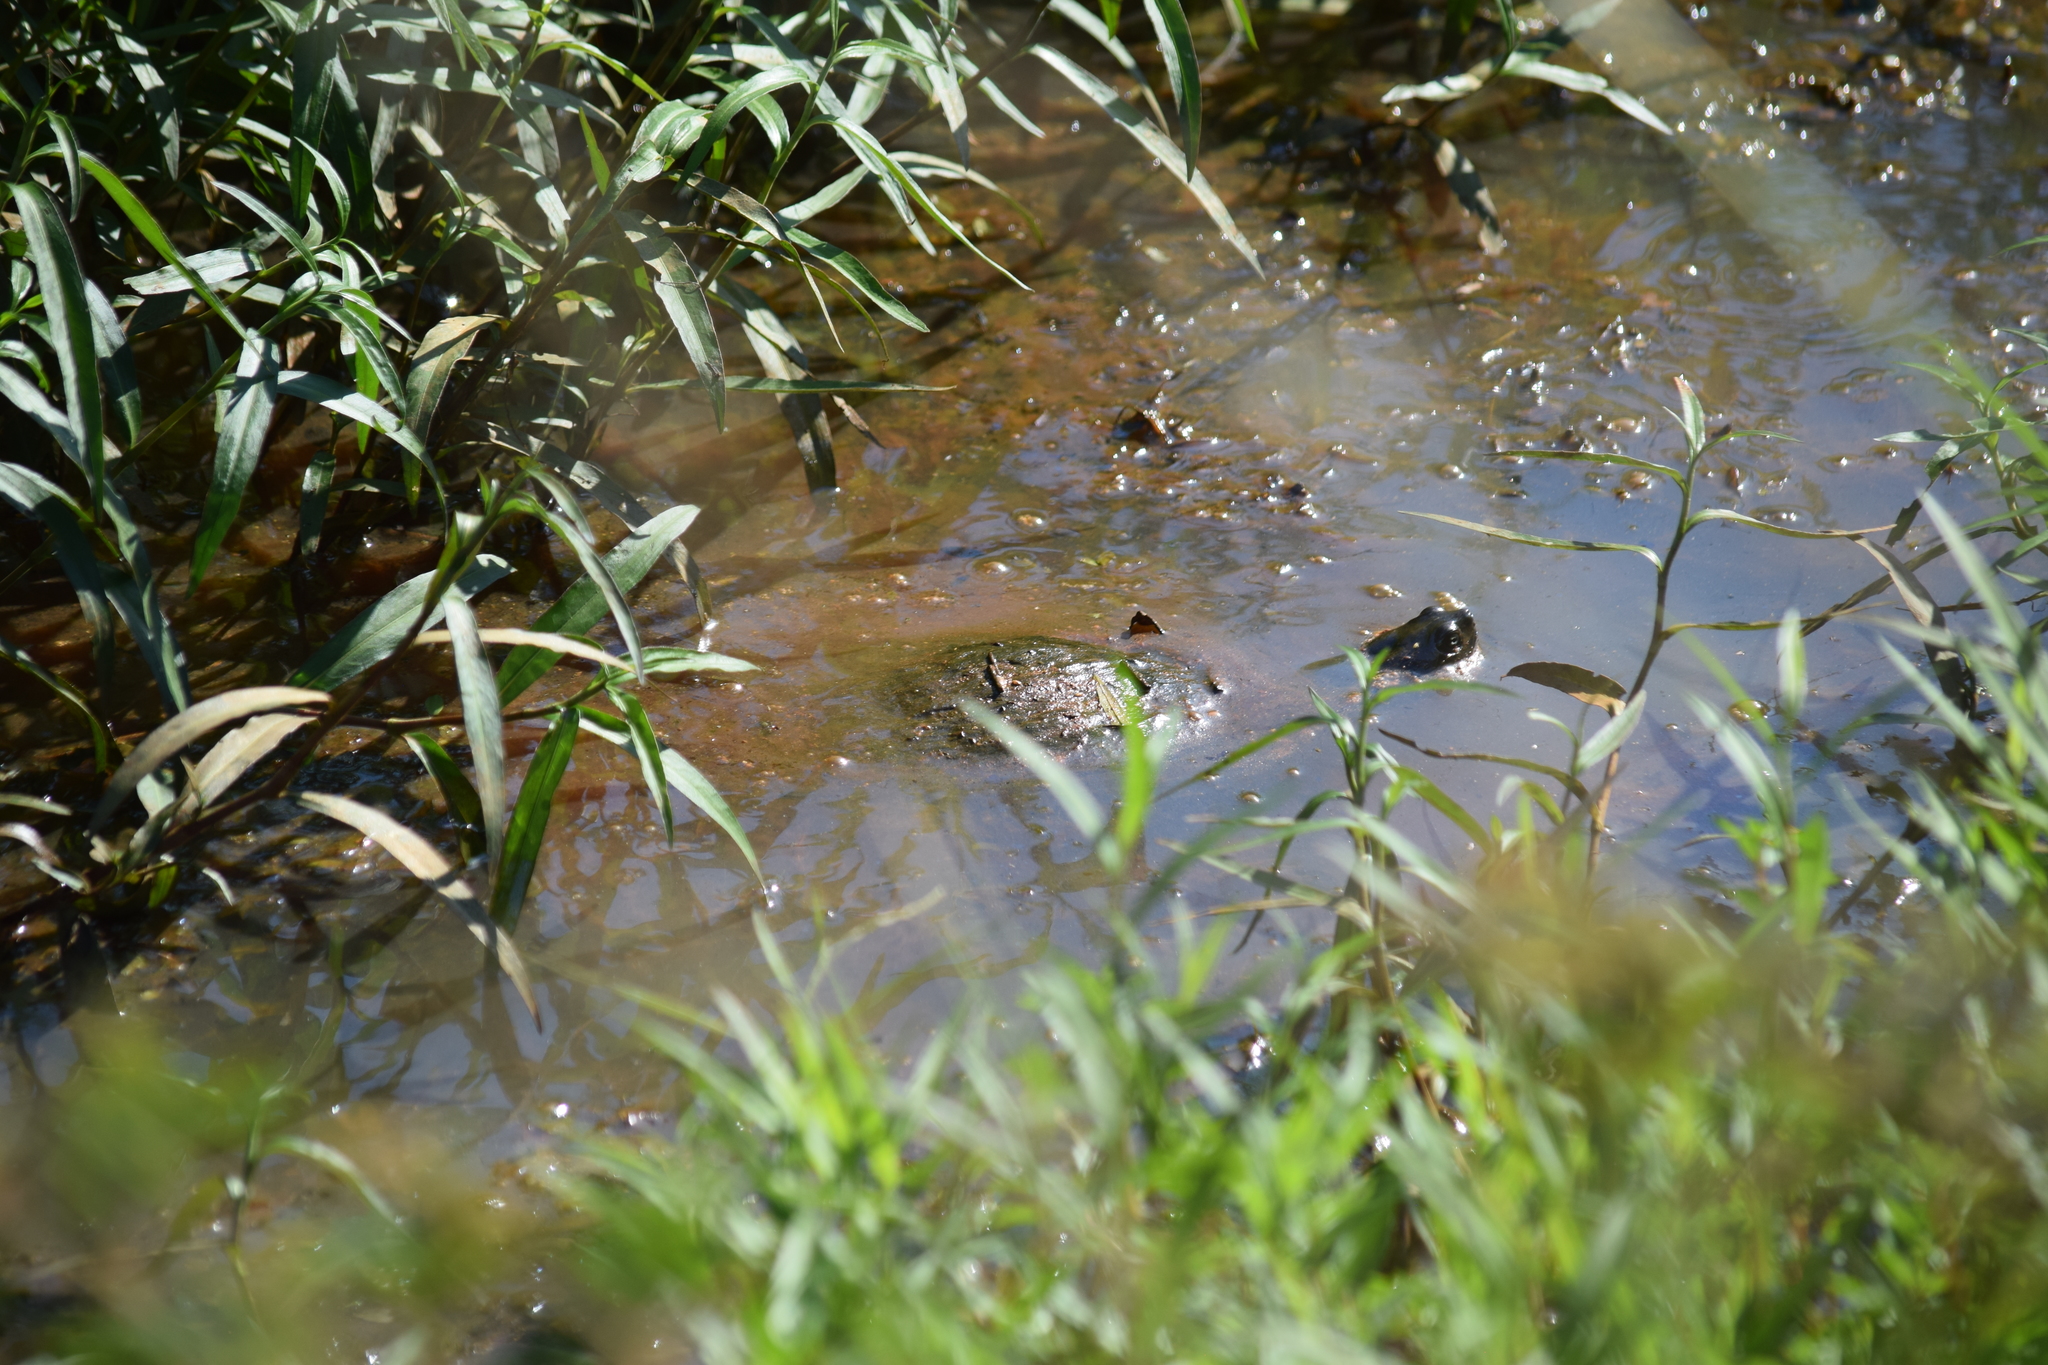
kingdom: Animalia
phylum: Chordata
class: Testudines
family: Emydidae
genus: Pseudemys
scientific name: Pseudemys rubriventris
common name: American red-bellied turtle
